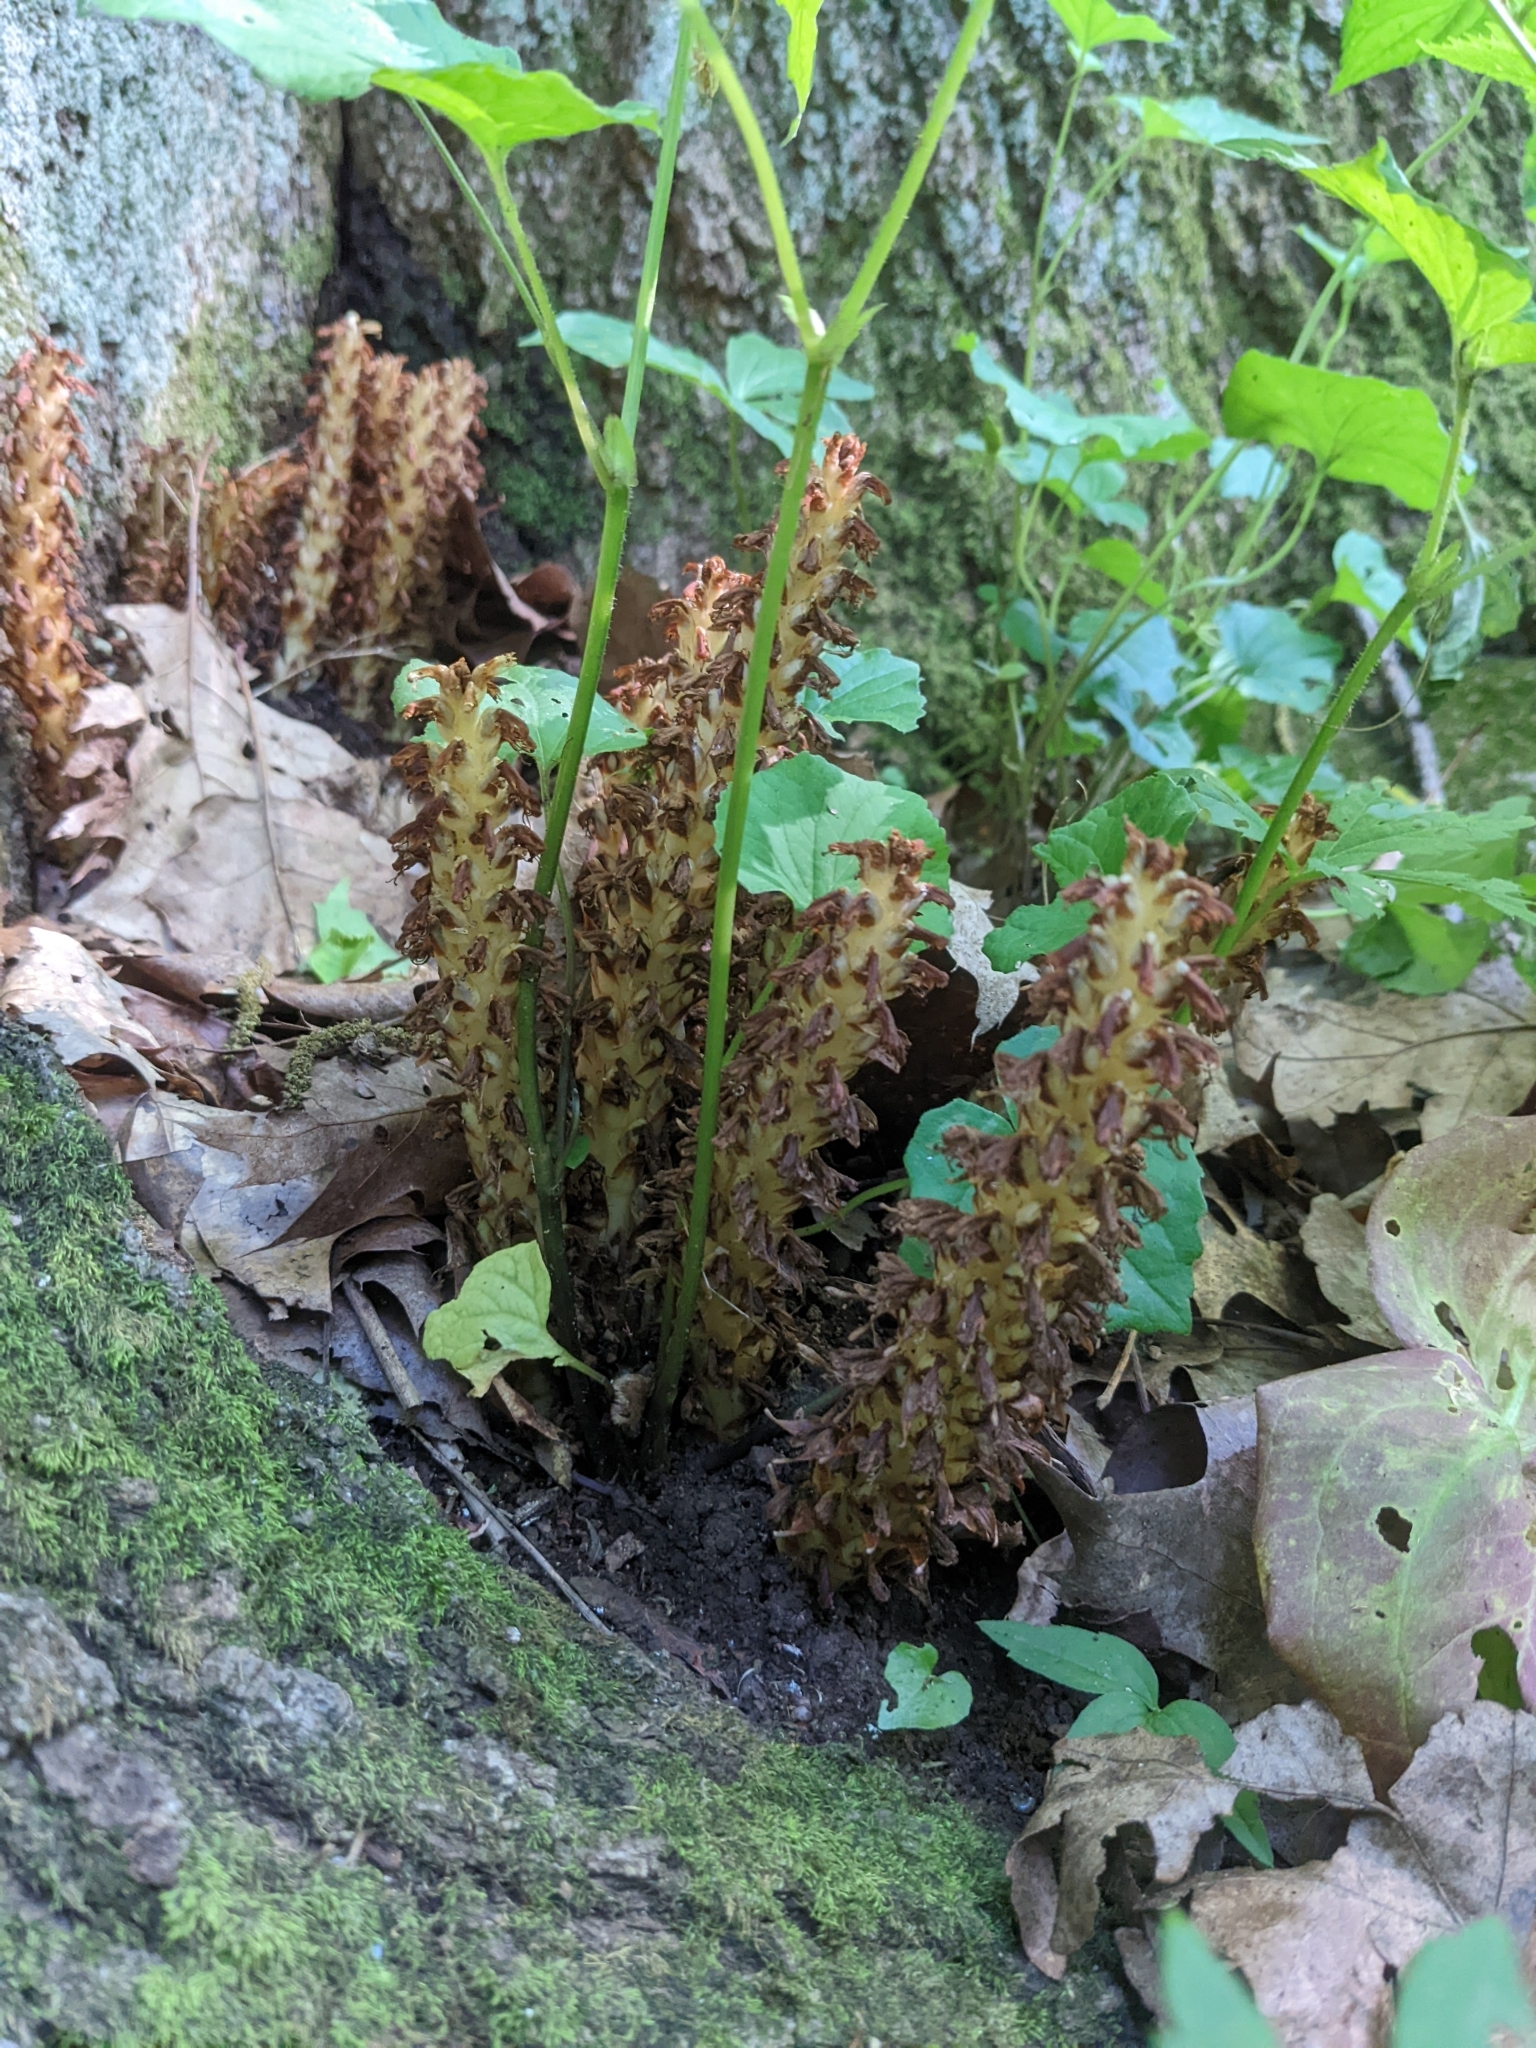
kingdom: Plantae
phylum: Tracheophyta
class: Magnoliopsida
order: Lamiales
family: Orobanchaceae
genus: Conopholis
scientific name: Conopholis americana
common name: American cancer-root
